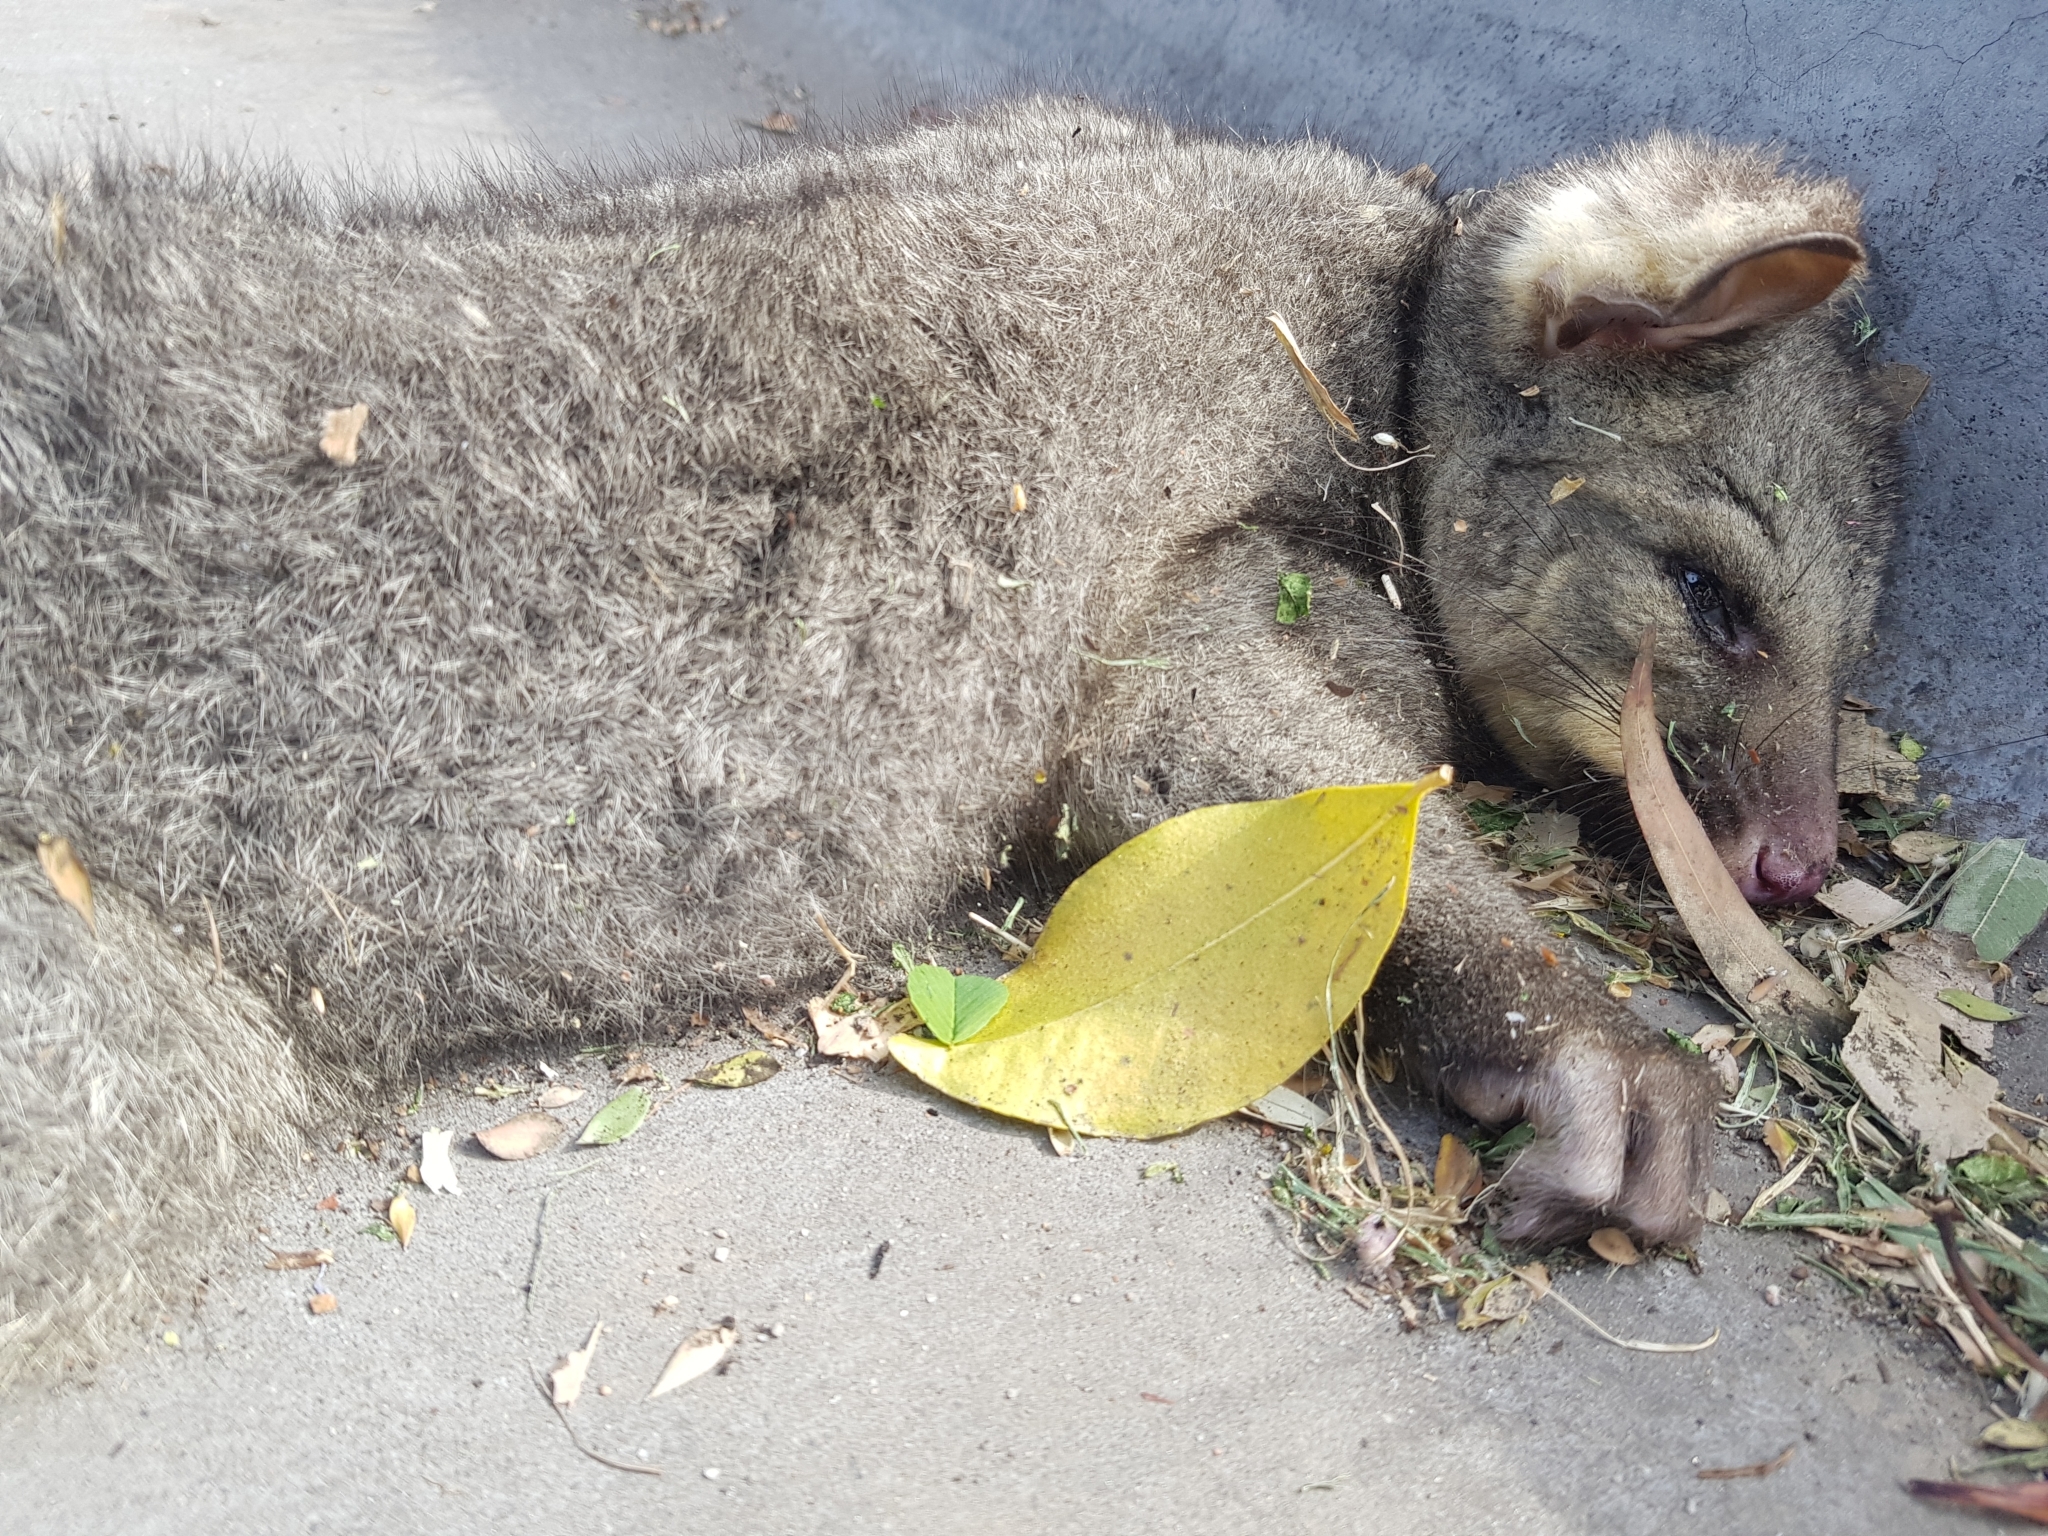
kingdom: Animalia
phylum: Chordata
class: Mammalia
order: Diprotodontia
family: Phalangeridae
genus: Trichosurus
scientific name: Trichosurus vulpecula
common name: Common brushtail
